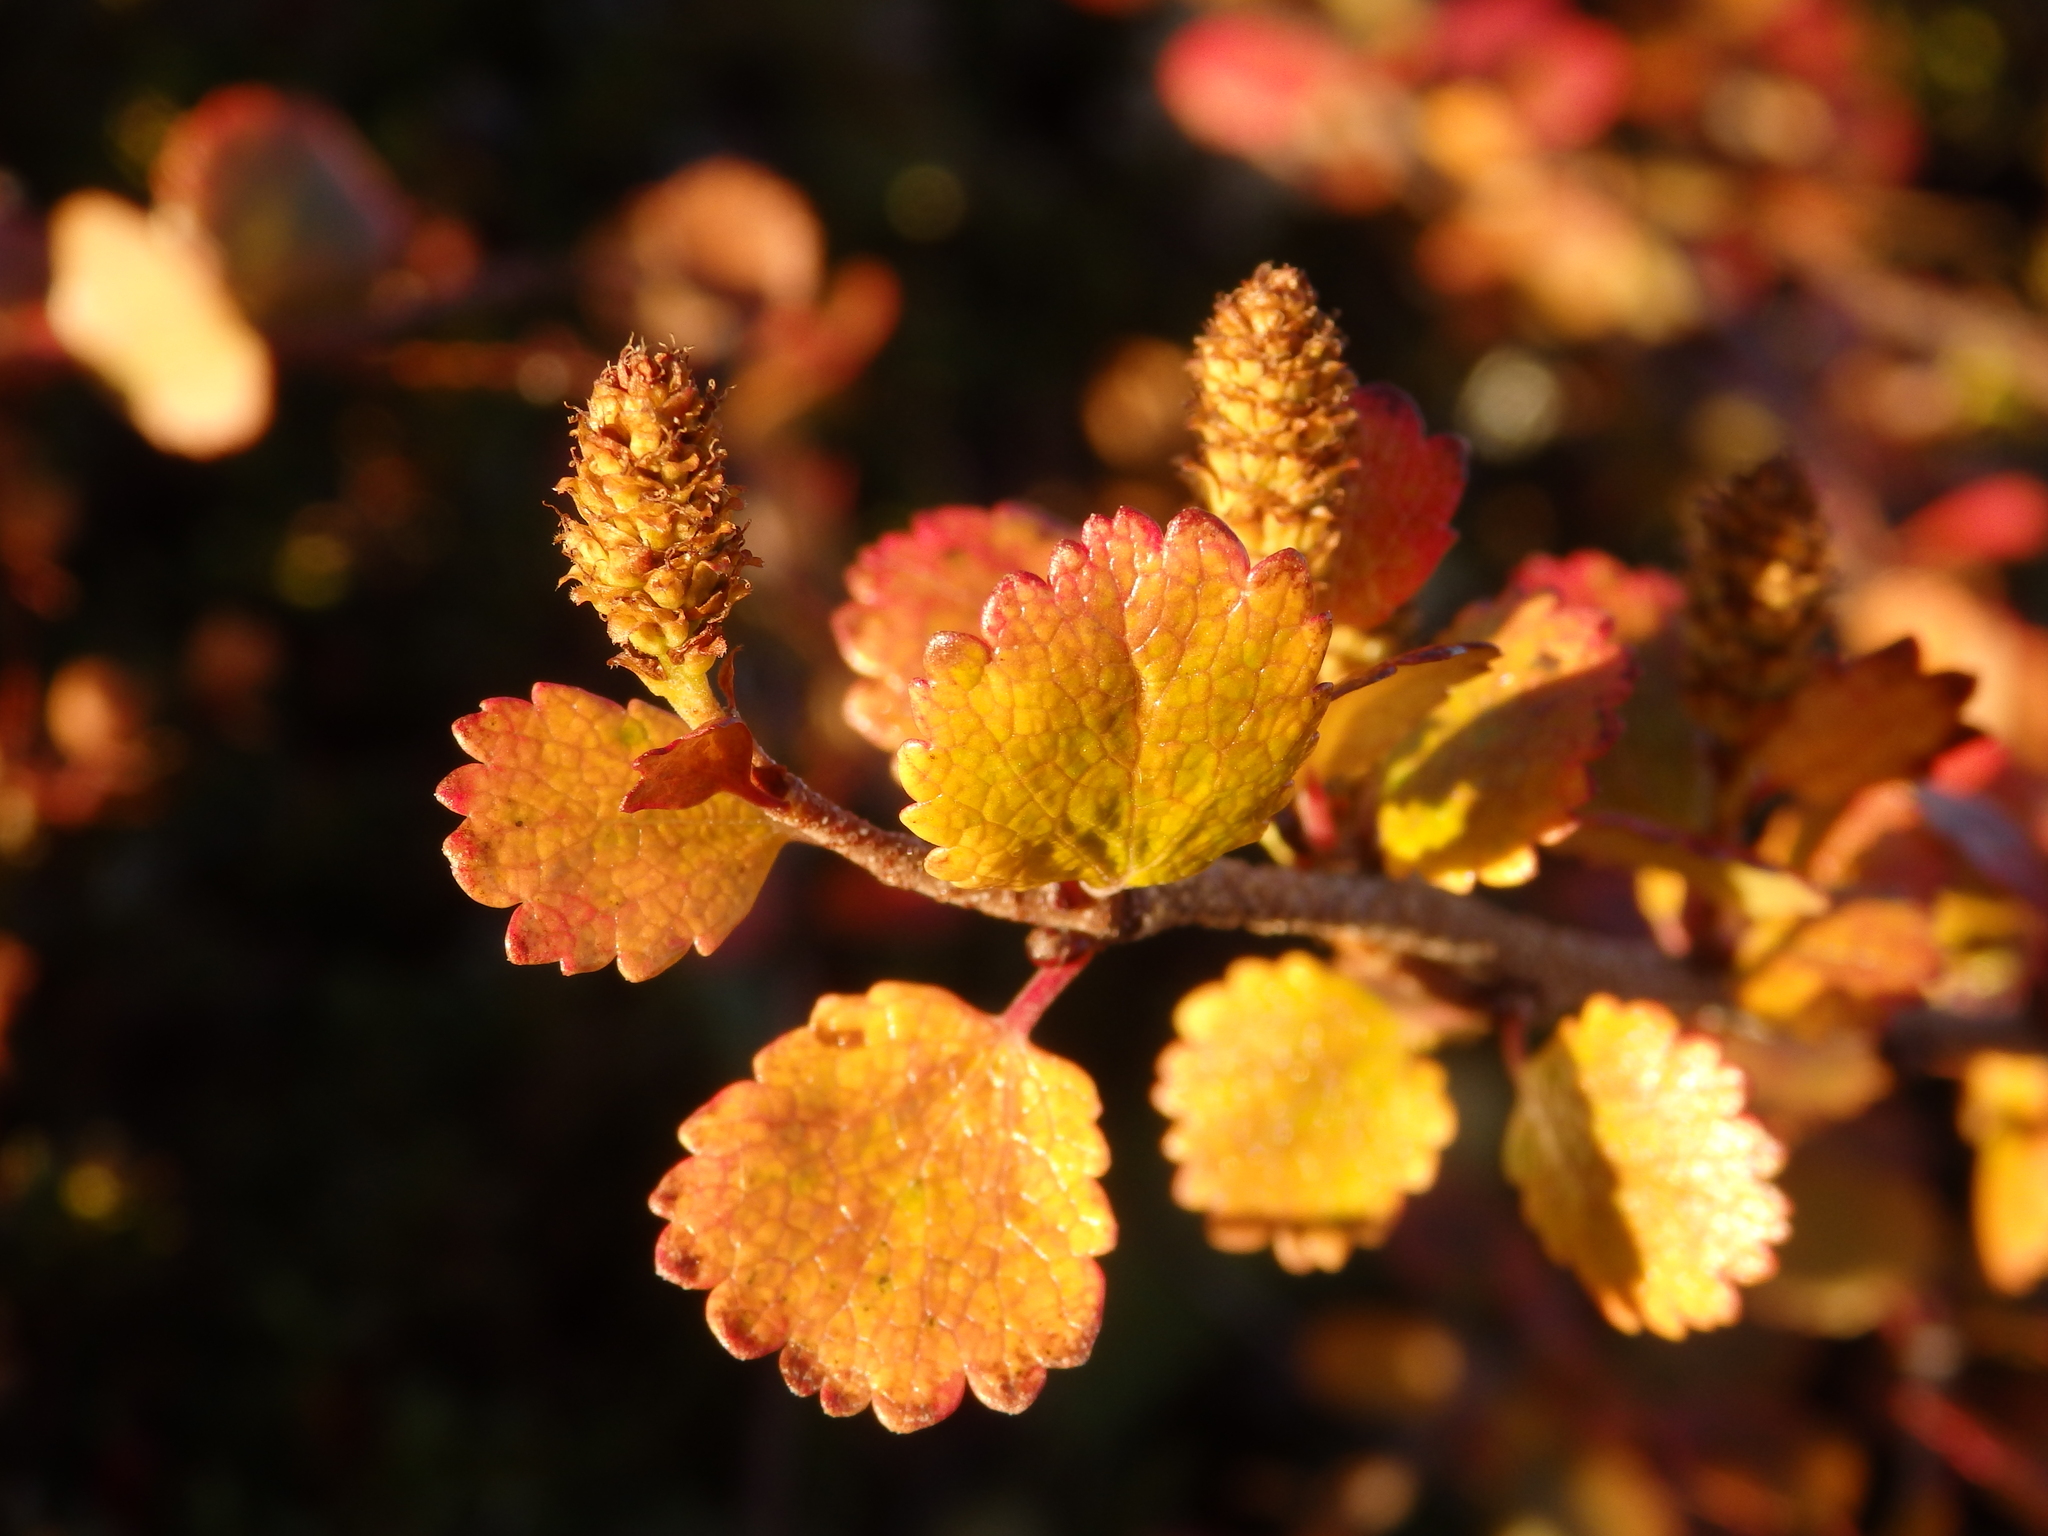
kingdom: Plantae
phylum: Tracheophyta
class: Magnoliopsida
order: Fagales
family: Betulaceae
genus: Betula
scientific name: Betula glandulosa
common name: Dwarf birch
